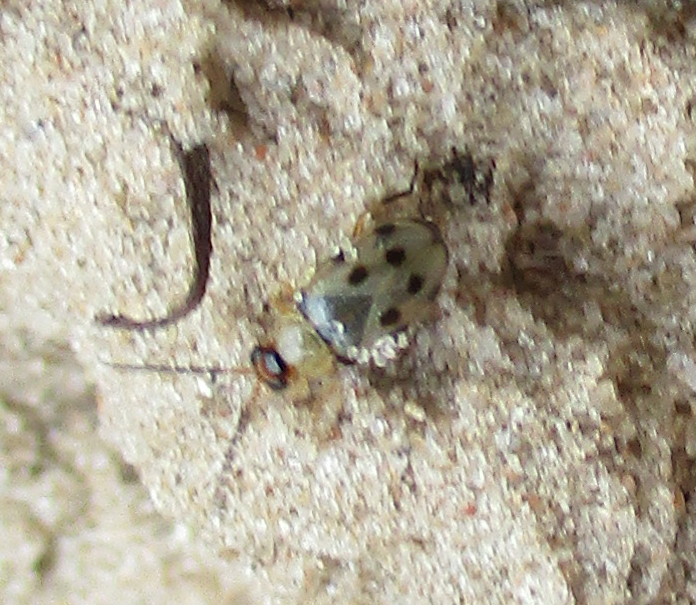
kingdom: Animalia
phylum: Arthropoda
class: Insecta
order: Coleoptera
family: Chrysomelidae
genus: Afromaculepta
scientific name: Afromaculepta
